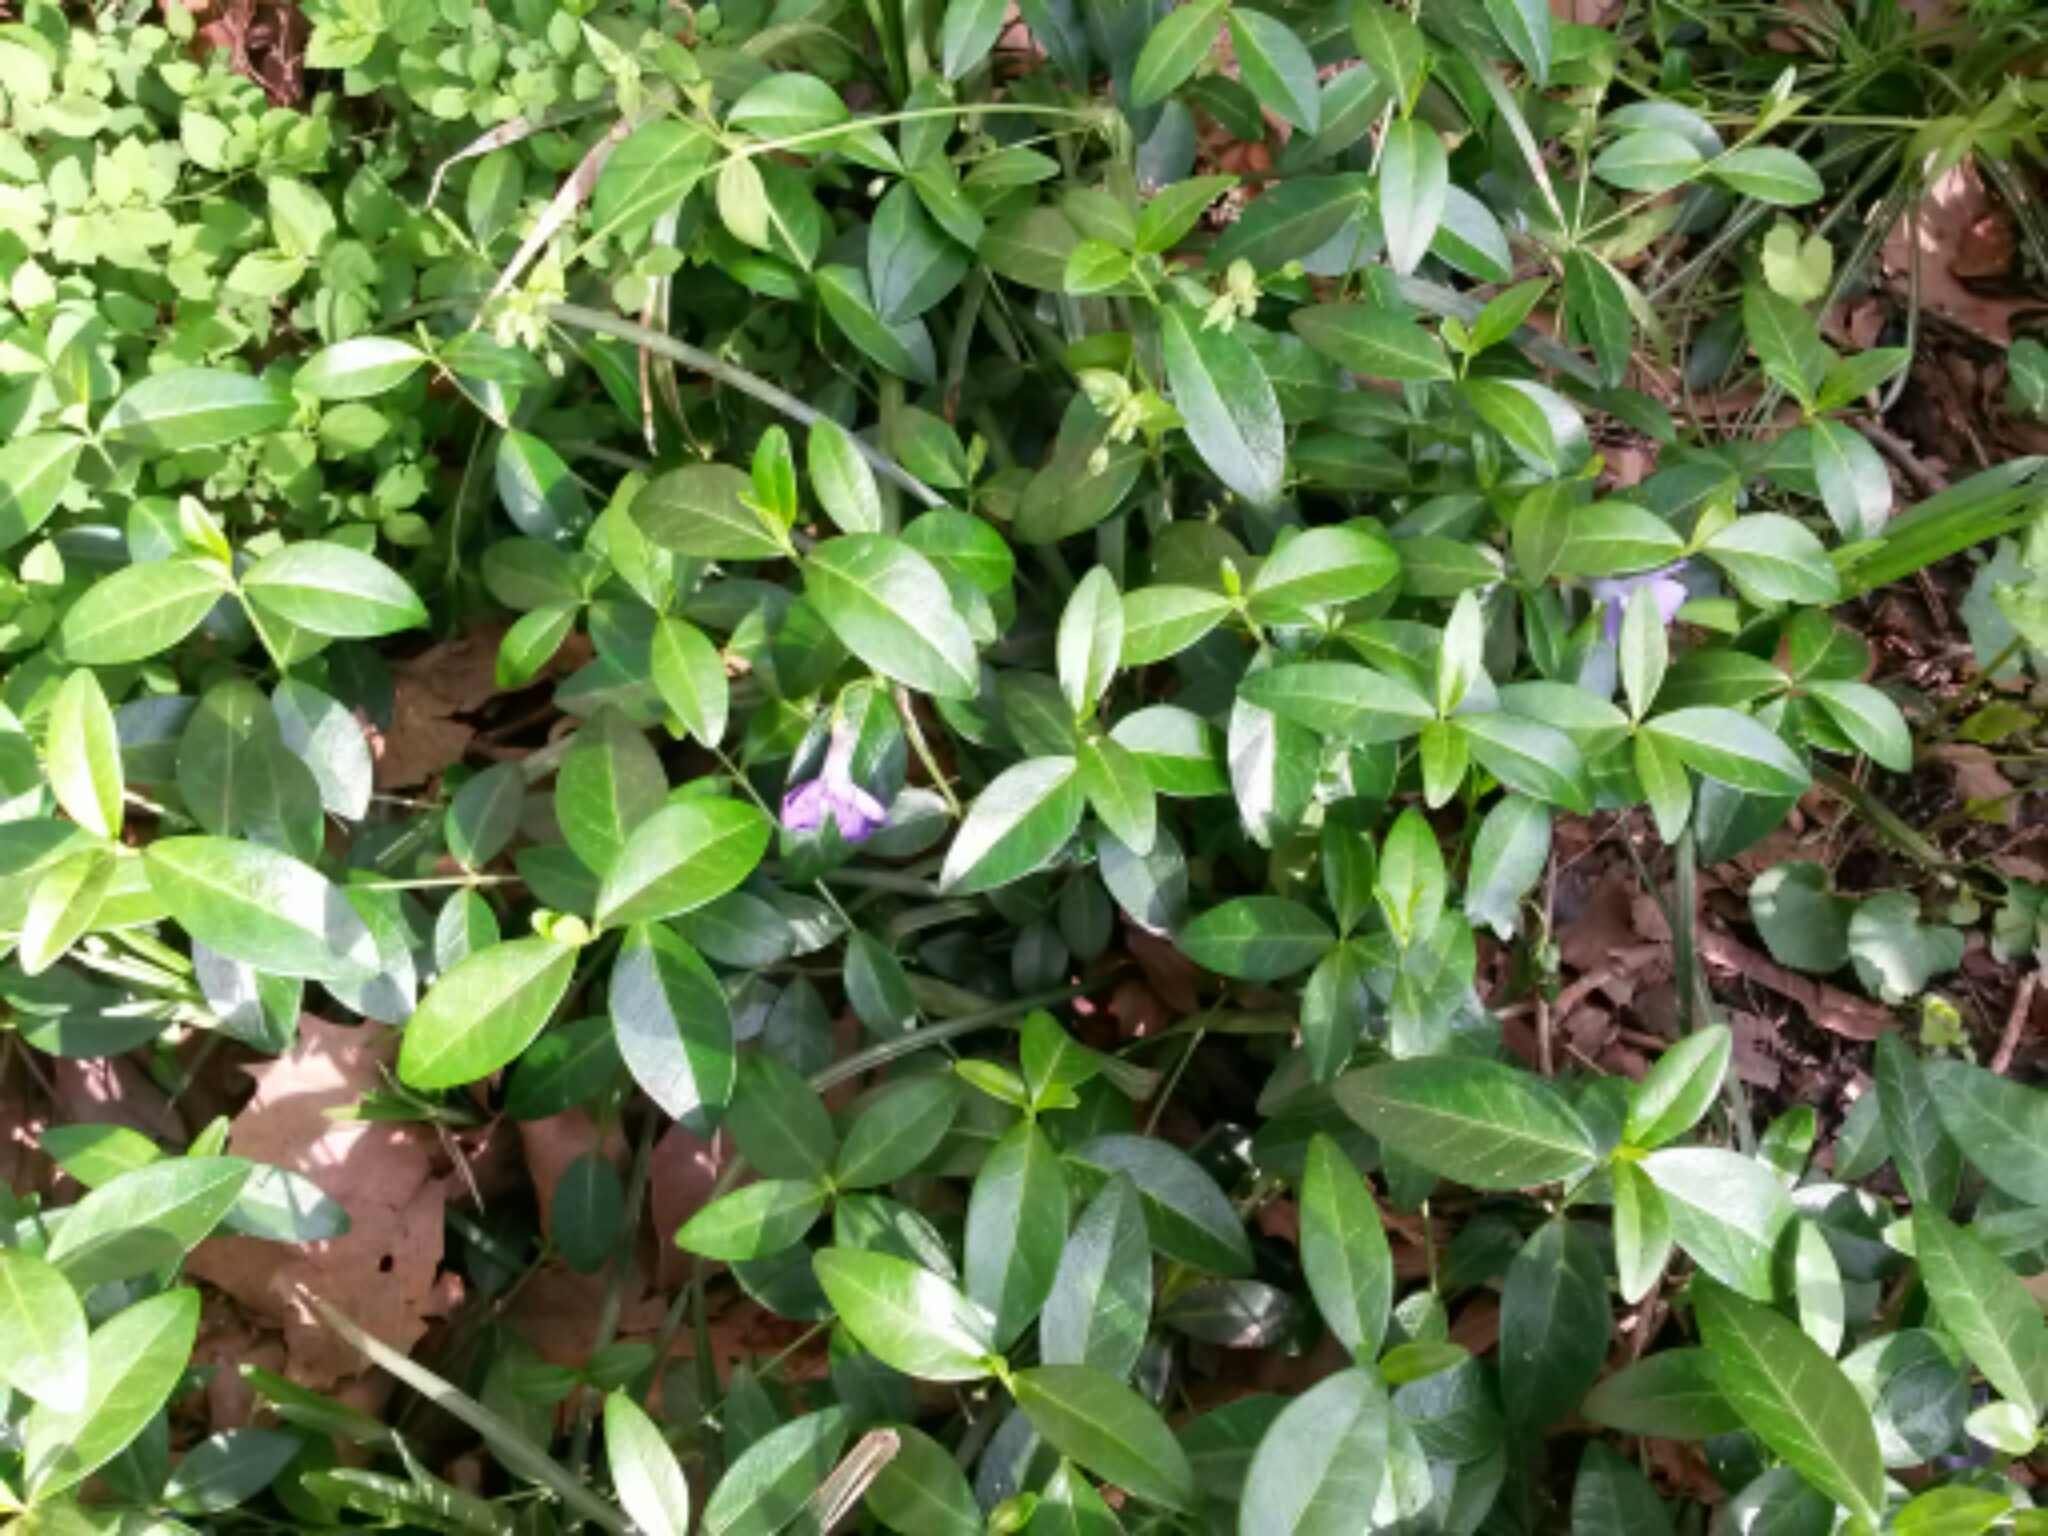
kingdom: Plantae
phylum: Tracheophyta
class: Magnoliopsida
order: Gentianales
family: Apocynaceae
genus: Vinca
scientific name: Vinca minor
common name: Lesser periwinkle
